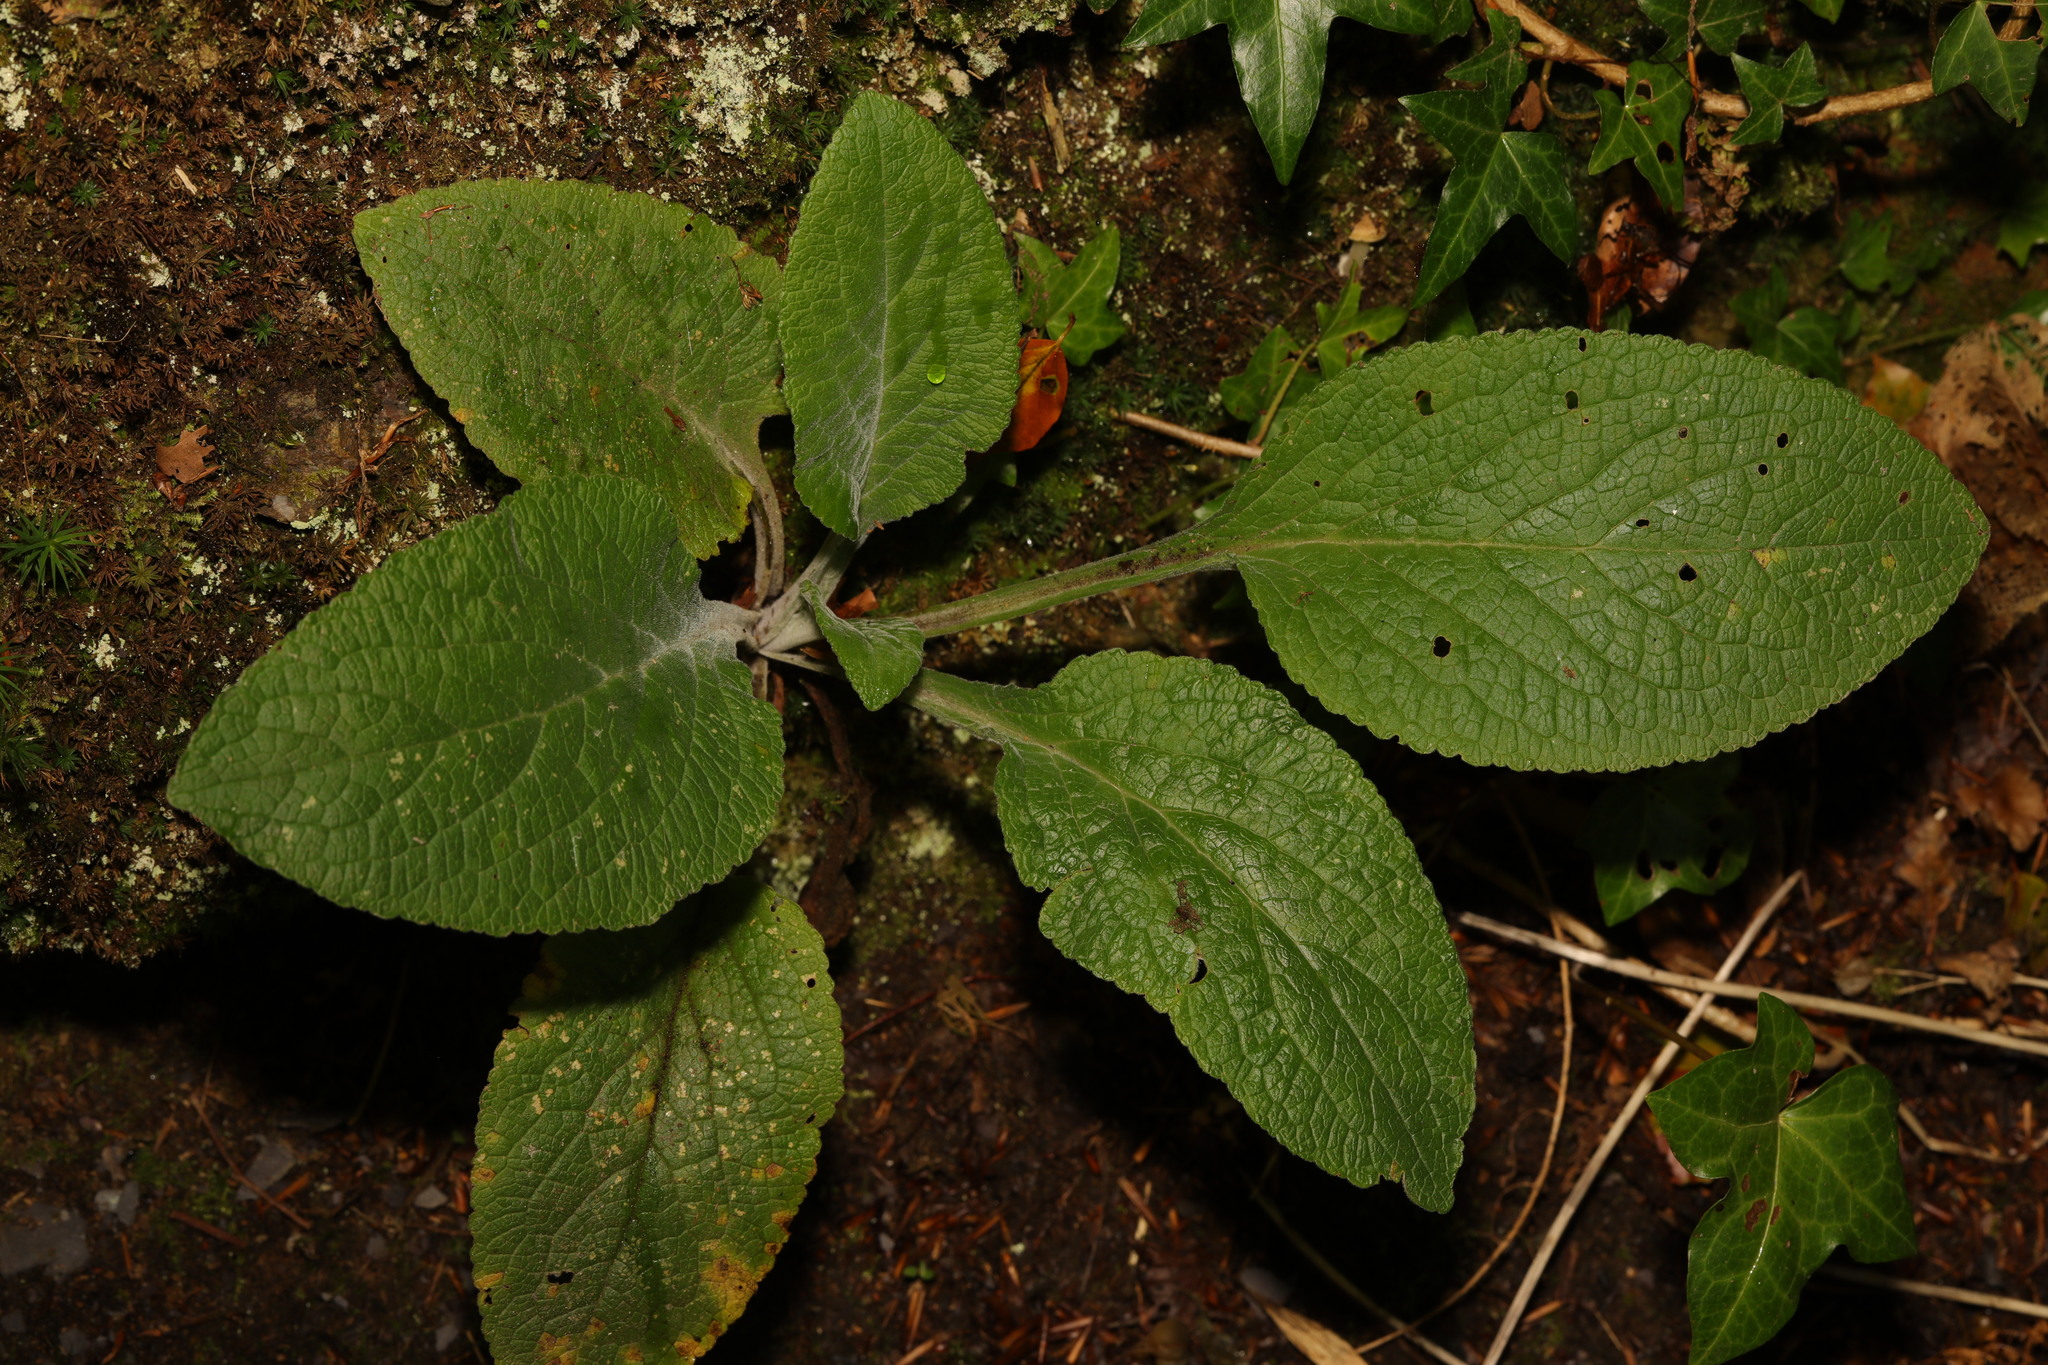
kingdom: Plantae
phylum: Tracheophyta
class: Magnoliopsida
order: Lamiales
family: Plantaginaceae
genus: Digitalis
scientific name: Digitalis purpurea
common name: Foxglove
